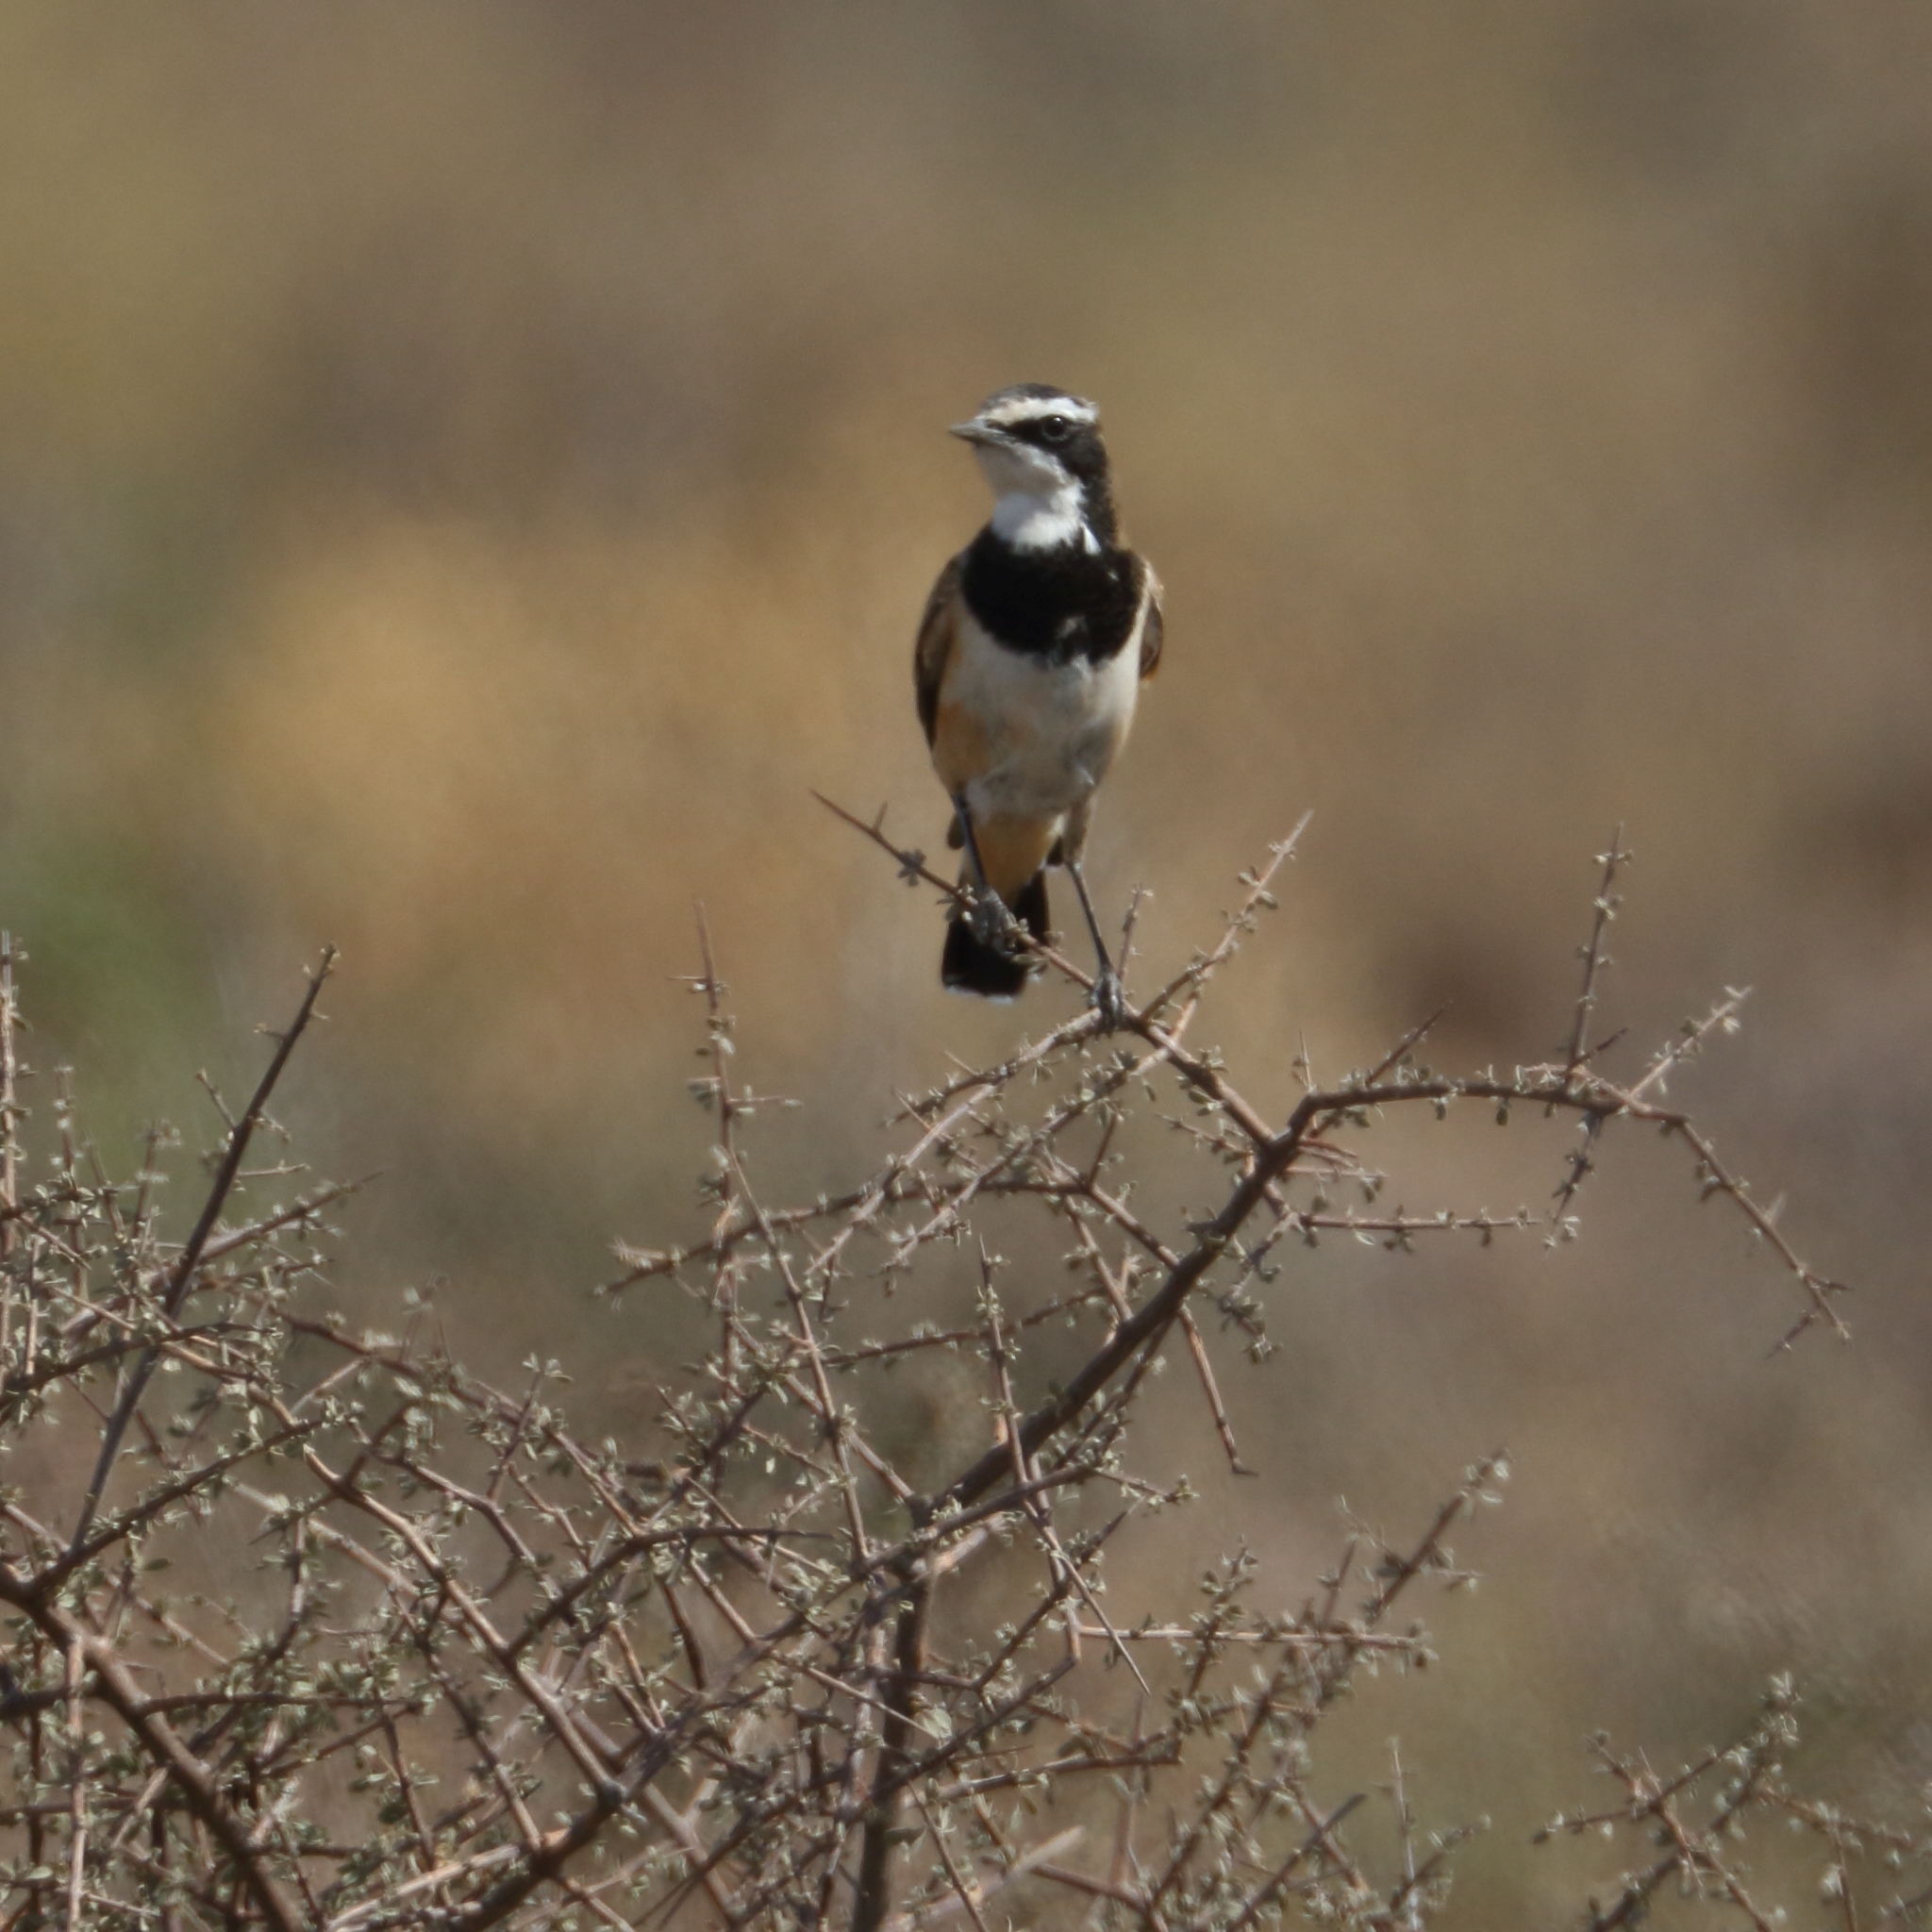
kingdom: Animalia
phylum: Chordata
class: Aves
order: Passeriformes
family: Muscicapidae
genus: Oenanthe
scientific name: Oenanthe pileata
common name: Capped wheatear
